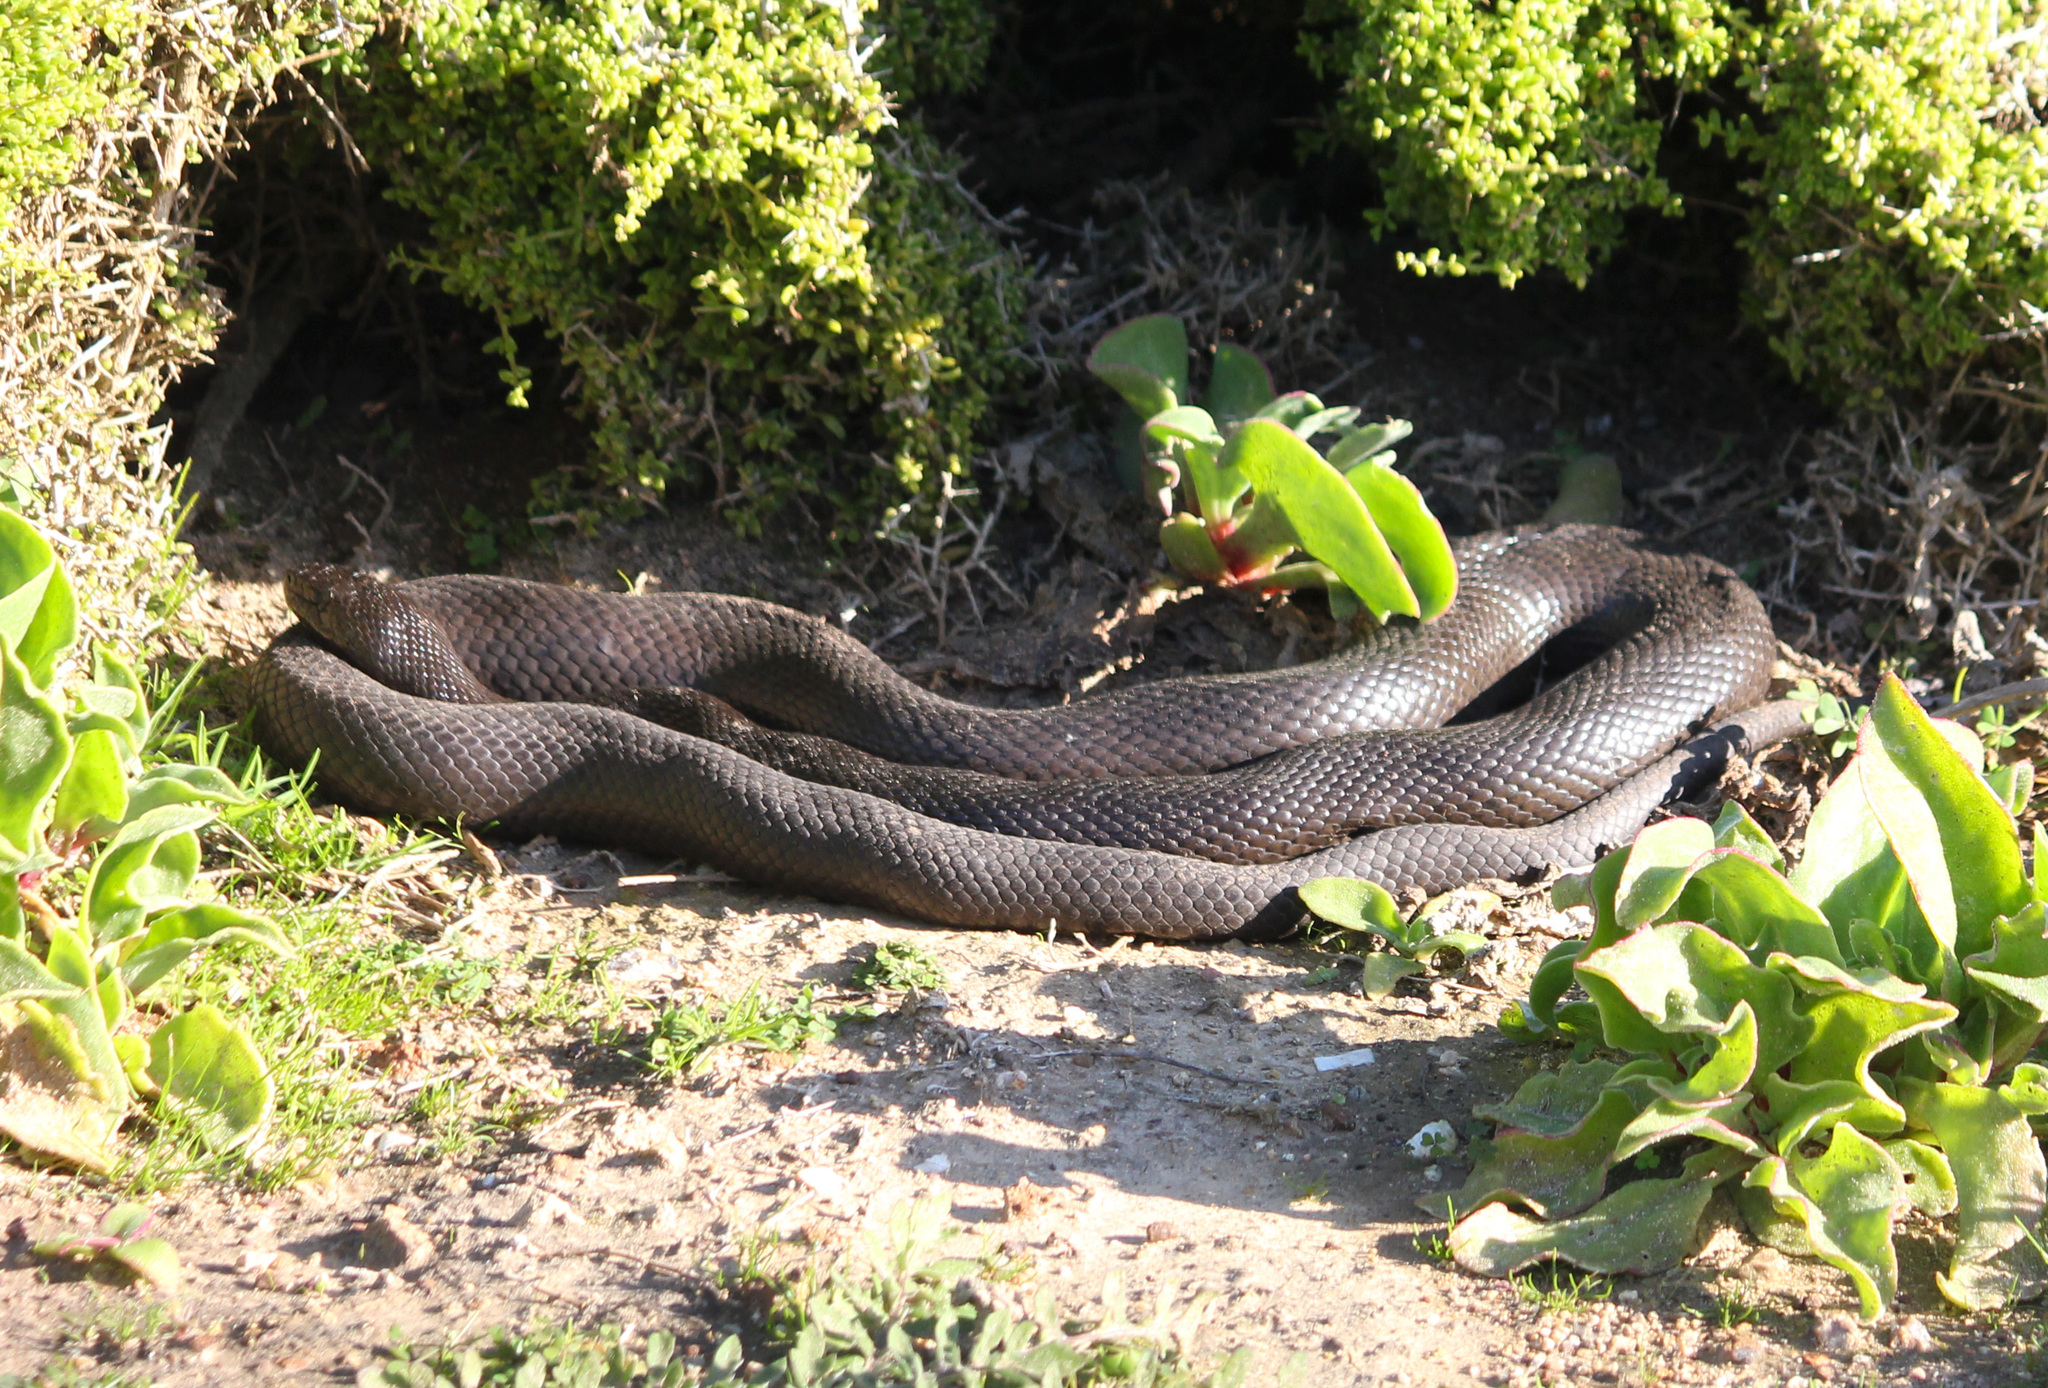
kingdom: Animalia
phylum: Chordata
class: Squamata
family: Pseudaspididae
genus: Pseudaspis
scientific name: Pseudaspis cana
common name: Mole snake
